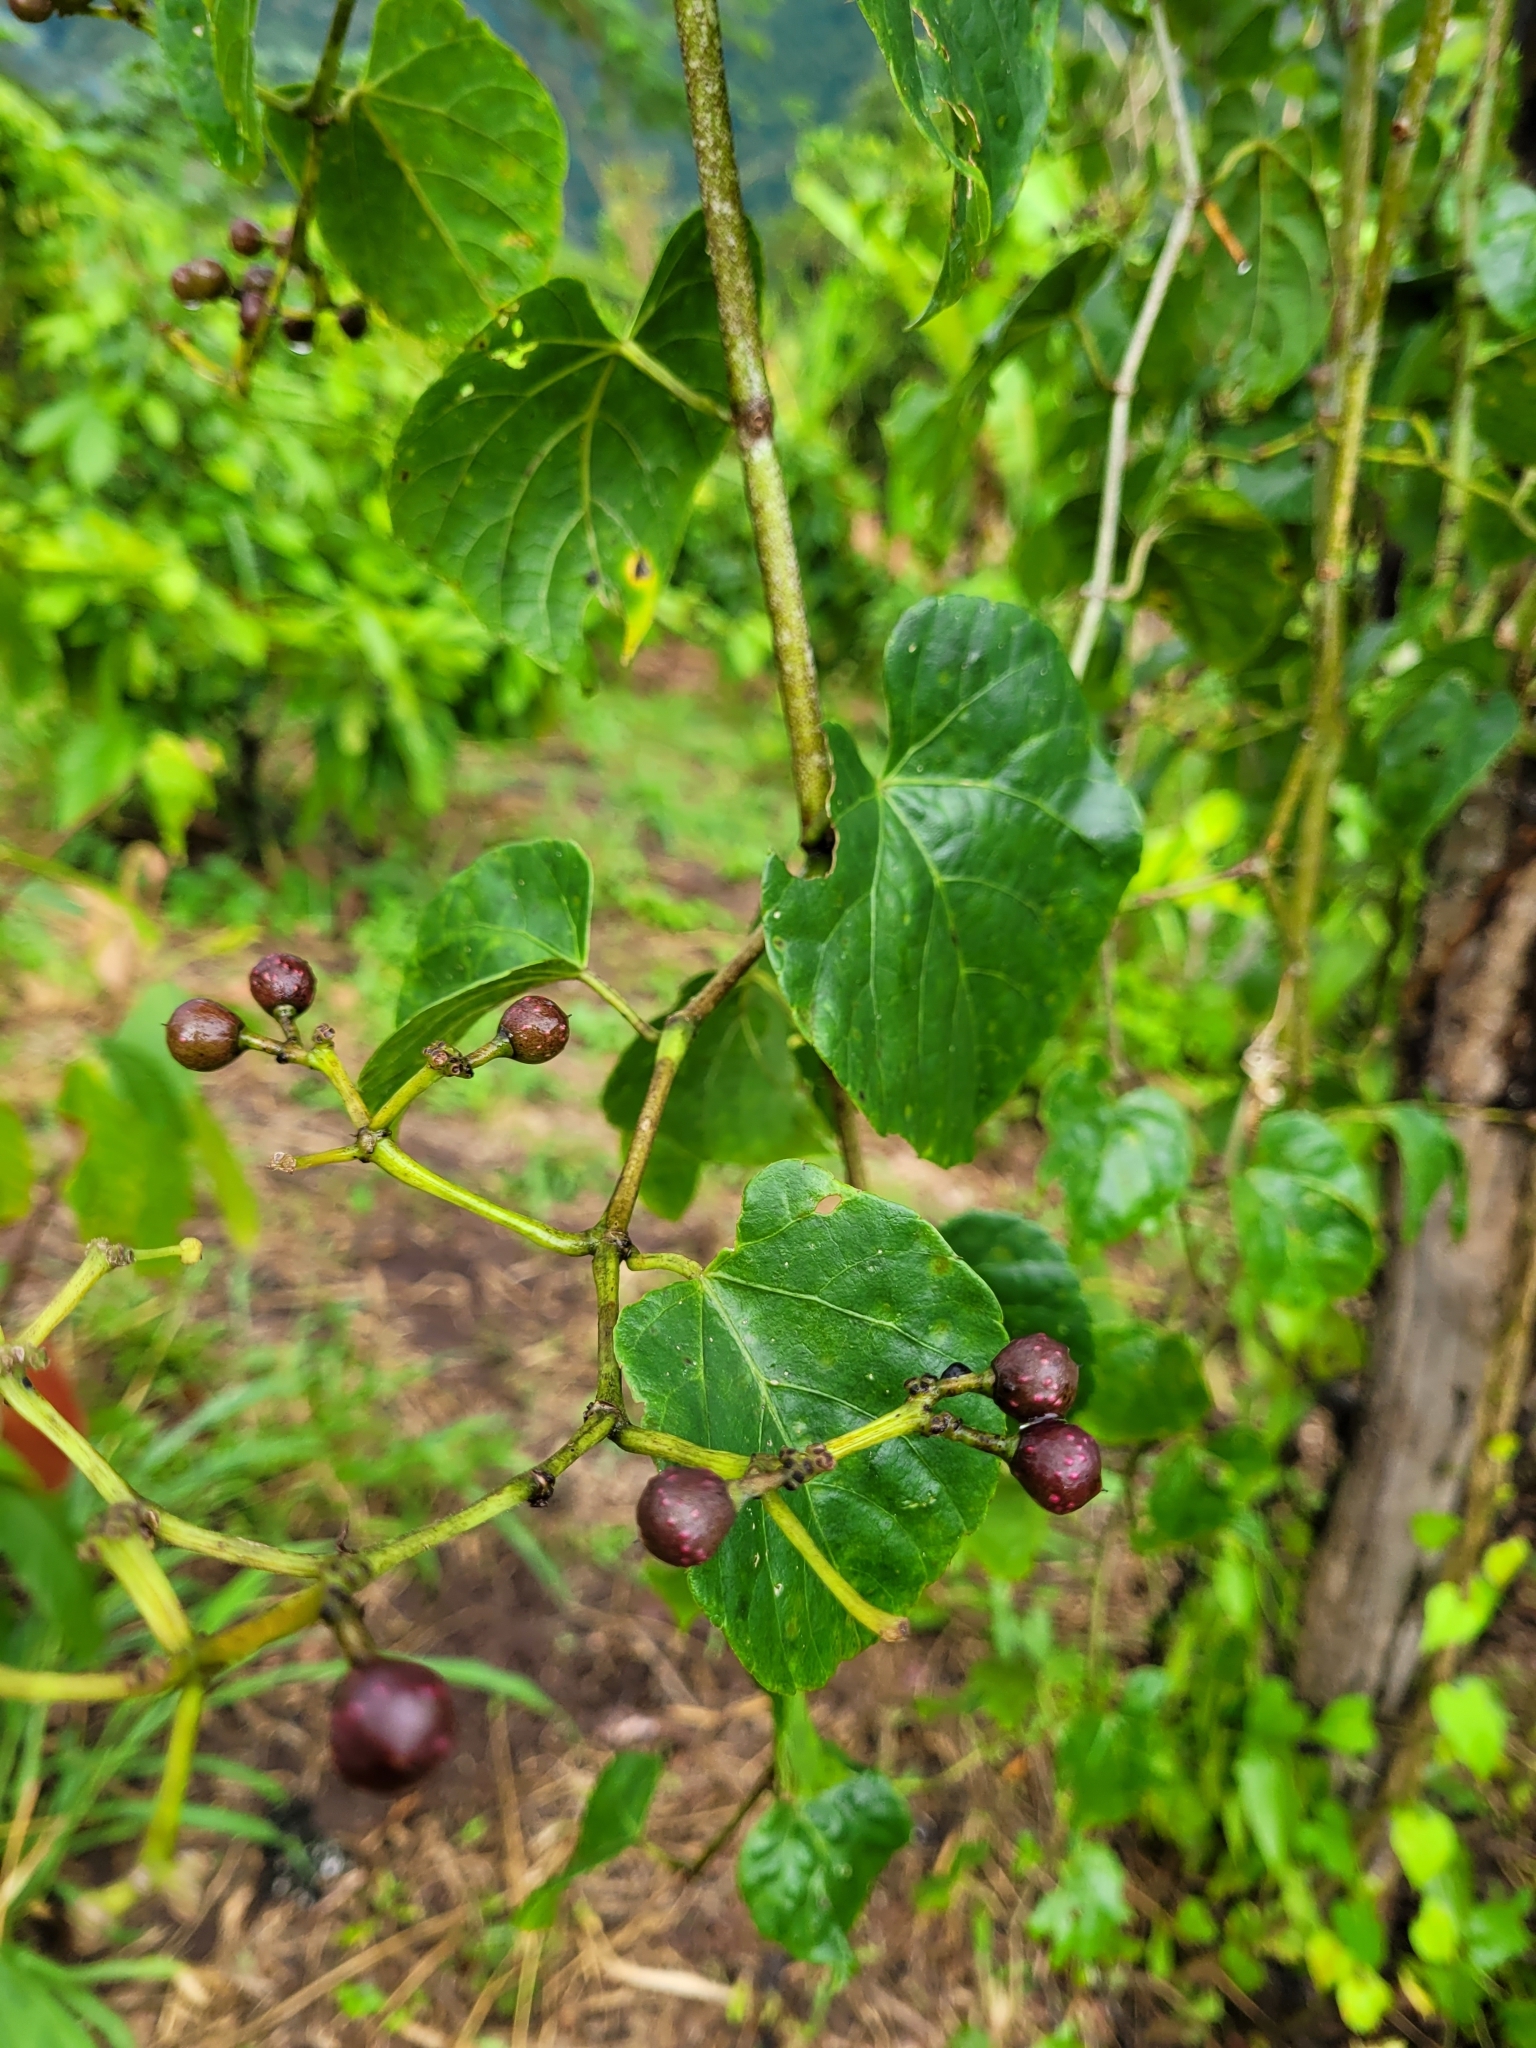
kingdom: Plantae
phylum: Tracheophyta
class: Magnoliopsida
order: Vitales
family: Vitaceae
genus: Cissus
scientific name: Cissus verticillata
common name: Princess vine
